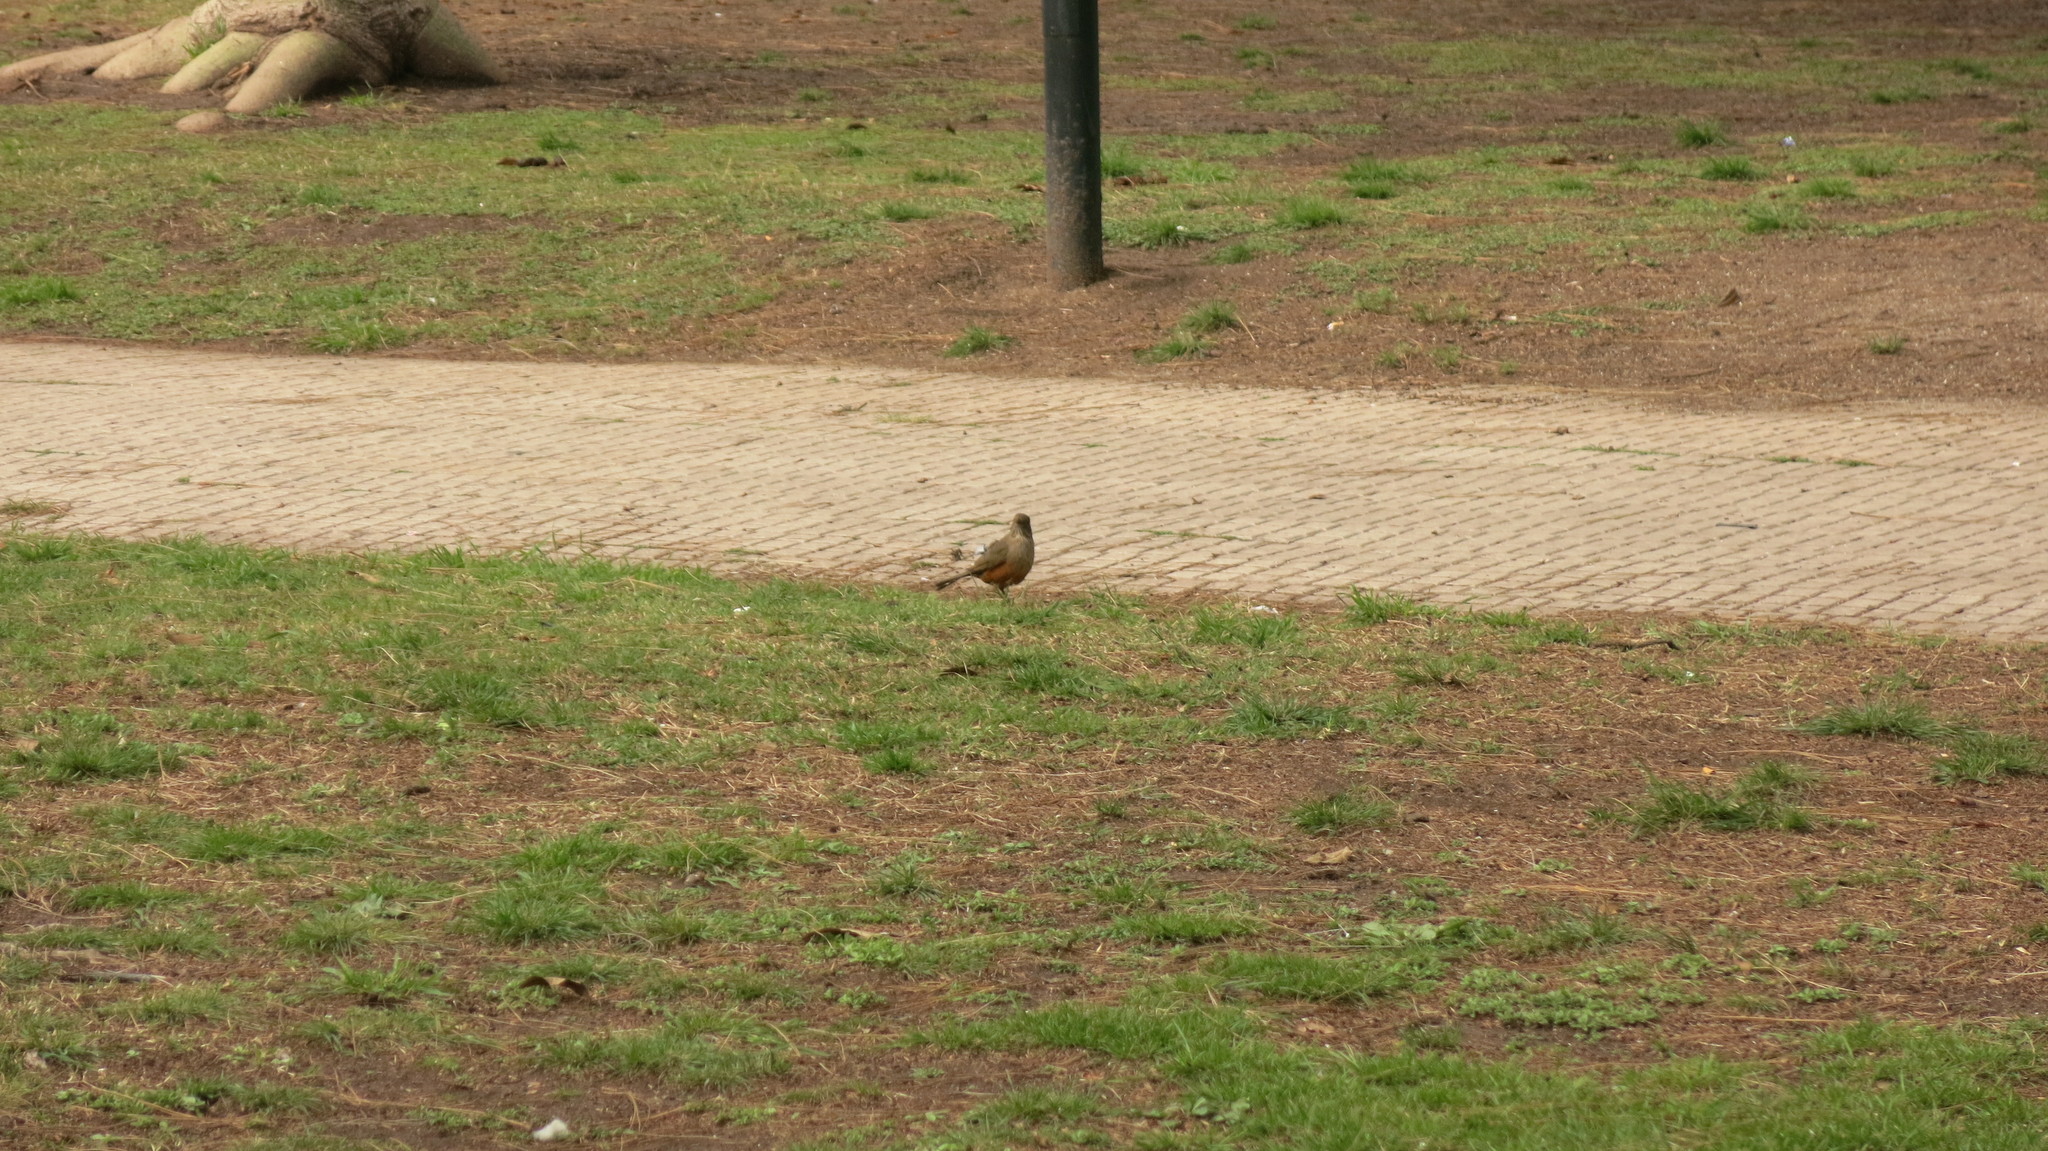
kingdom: Animalia
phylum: Chordata
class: Aves
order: Passeriformes
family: Turdidae
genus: Turdus
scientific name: Turdus rufiventris
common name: Rufous-bellied thrush
